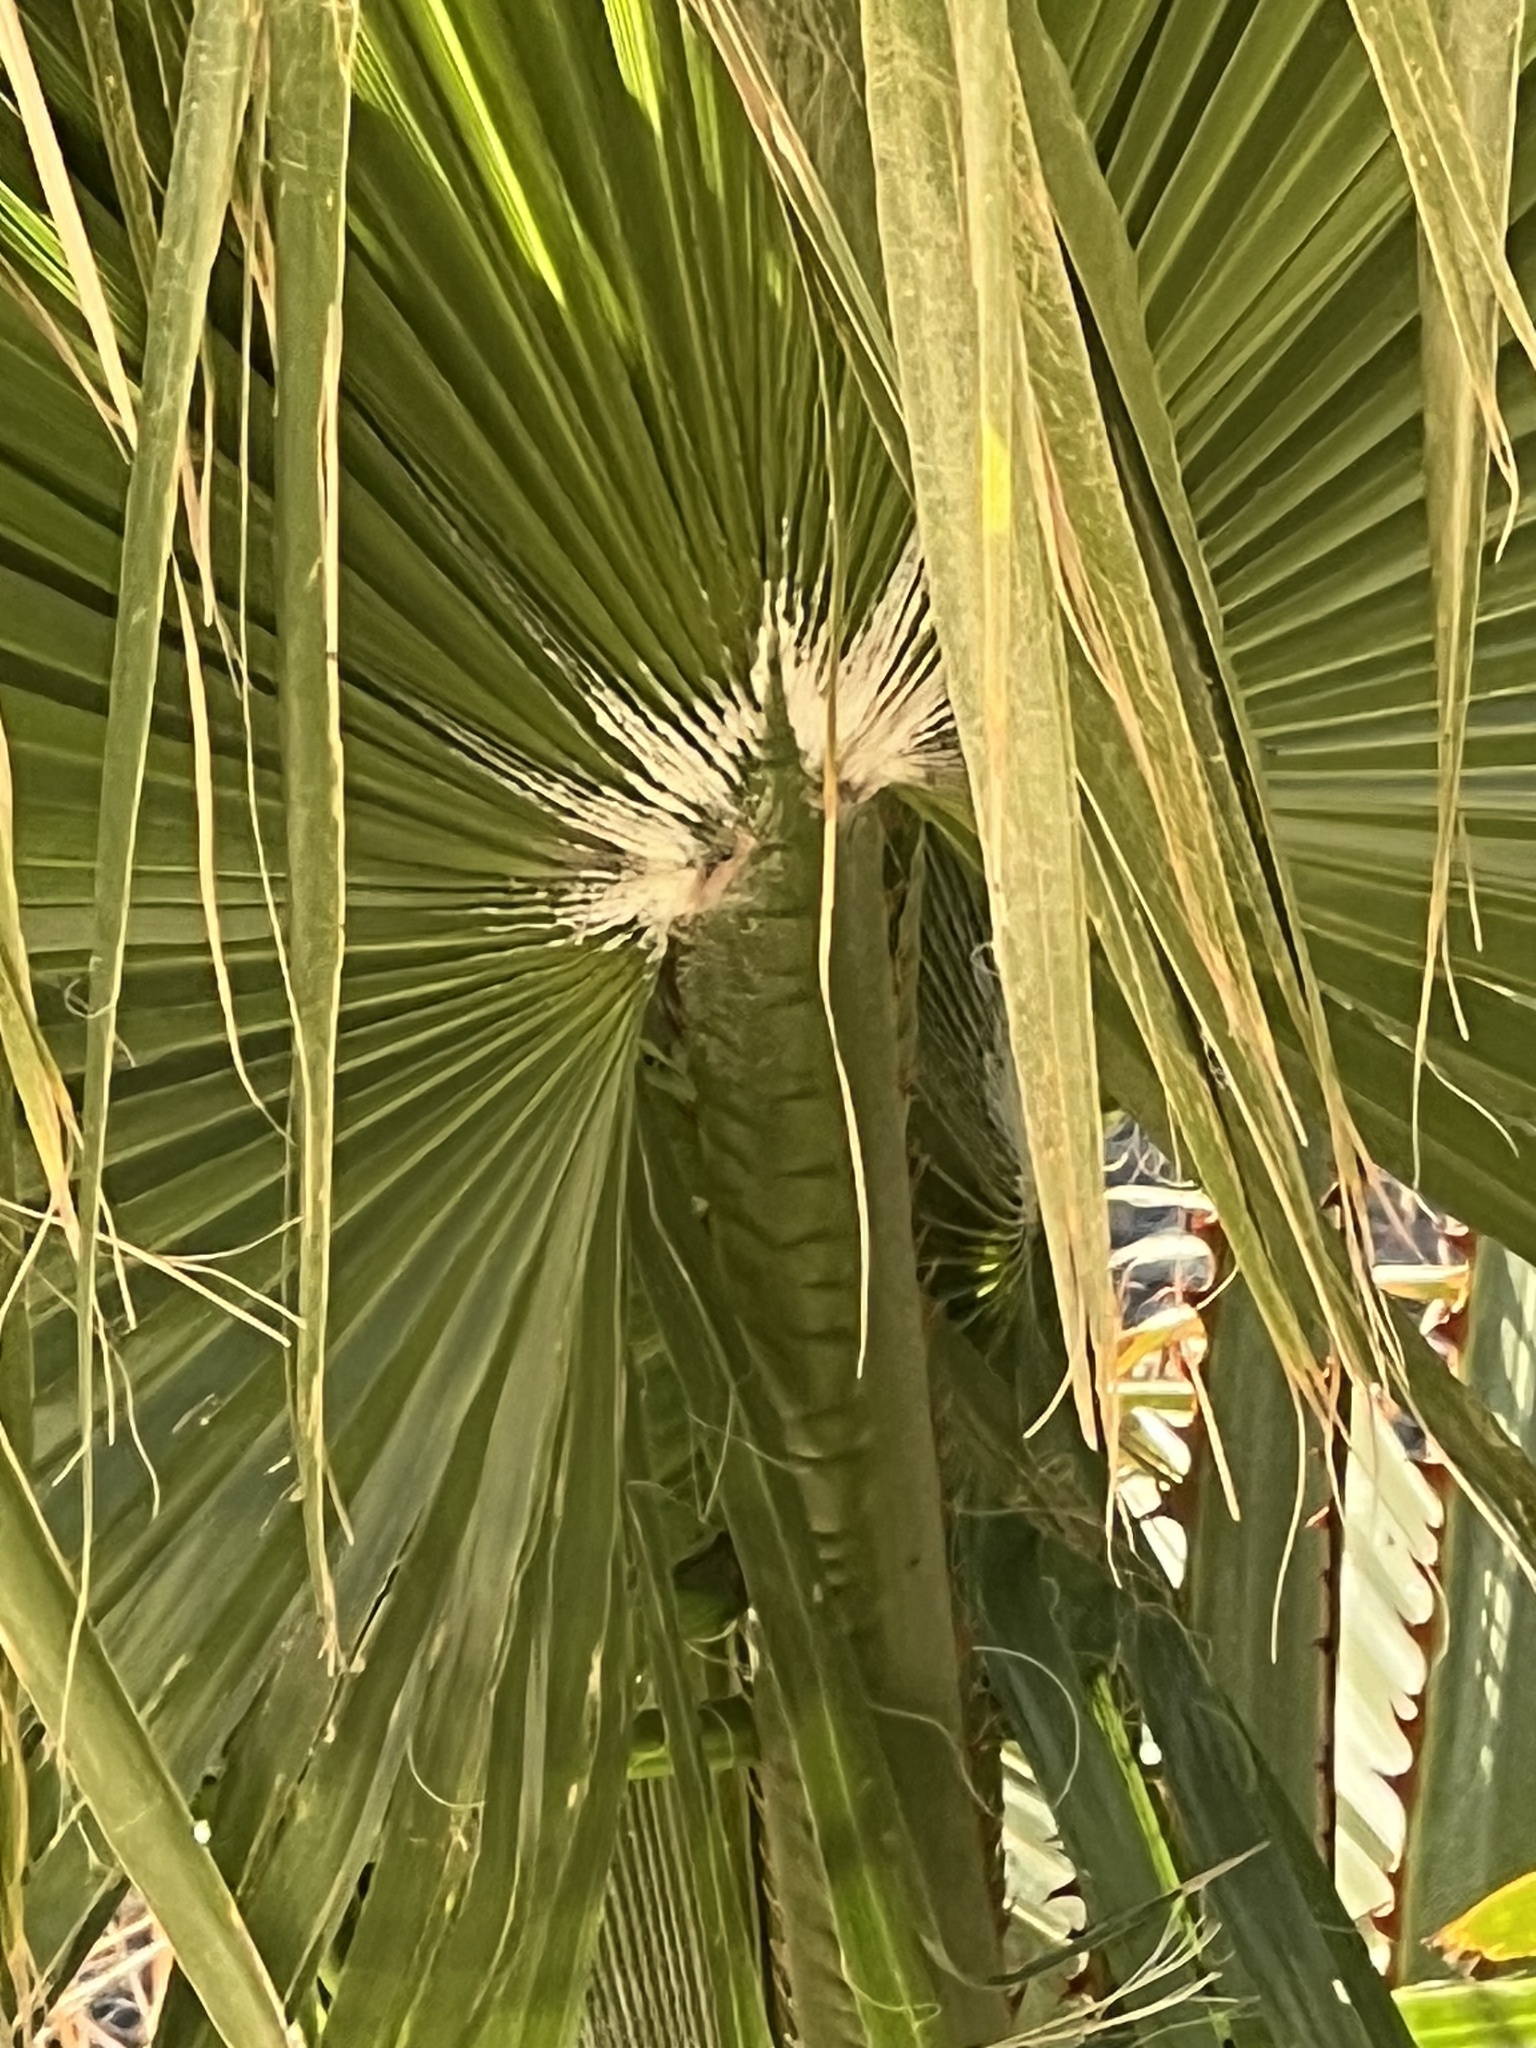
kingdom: Plantae
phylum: Tracheophyta
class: Liliopsida
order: Arecales
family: Arecaceae
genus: Washingtonia
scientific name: Washingtonia robusta
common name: Mexican fan palm
